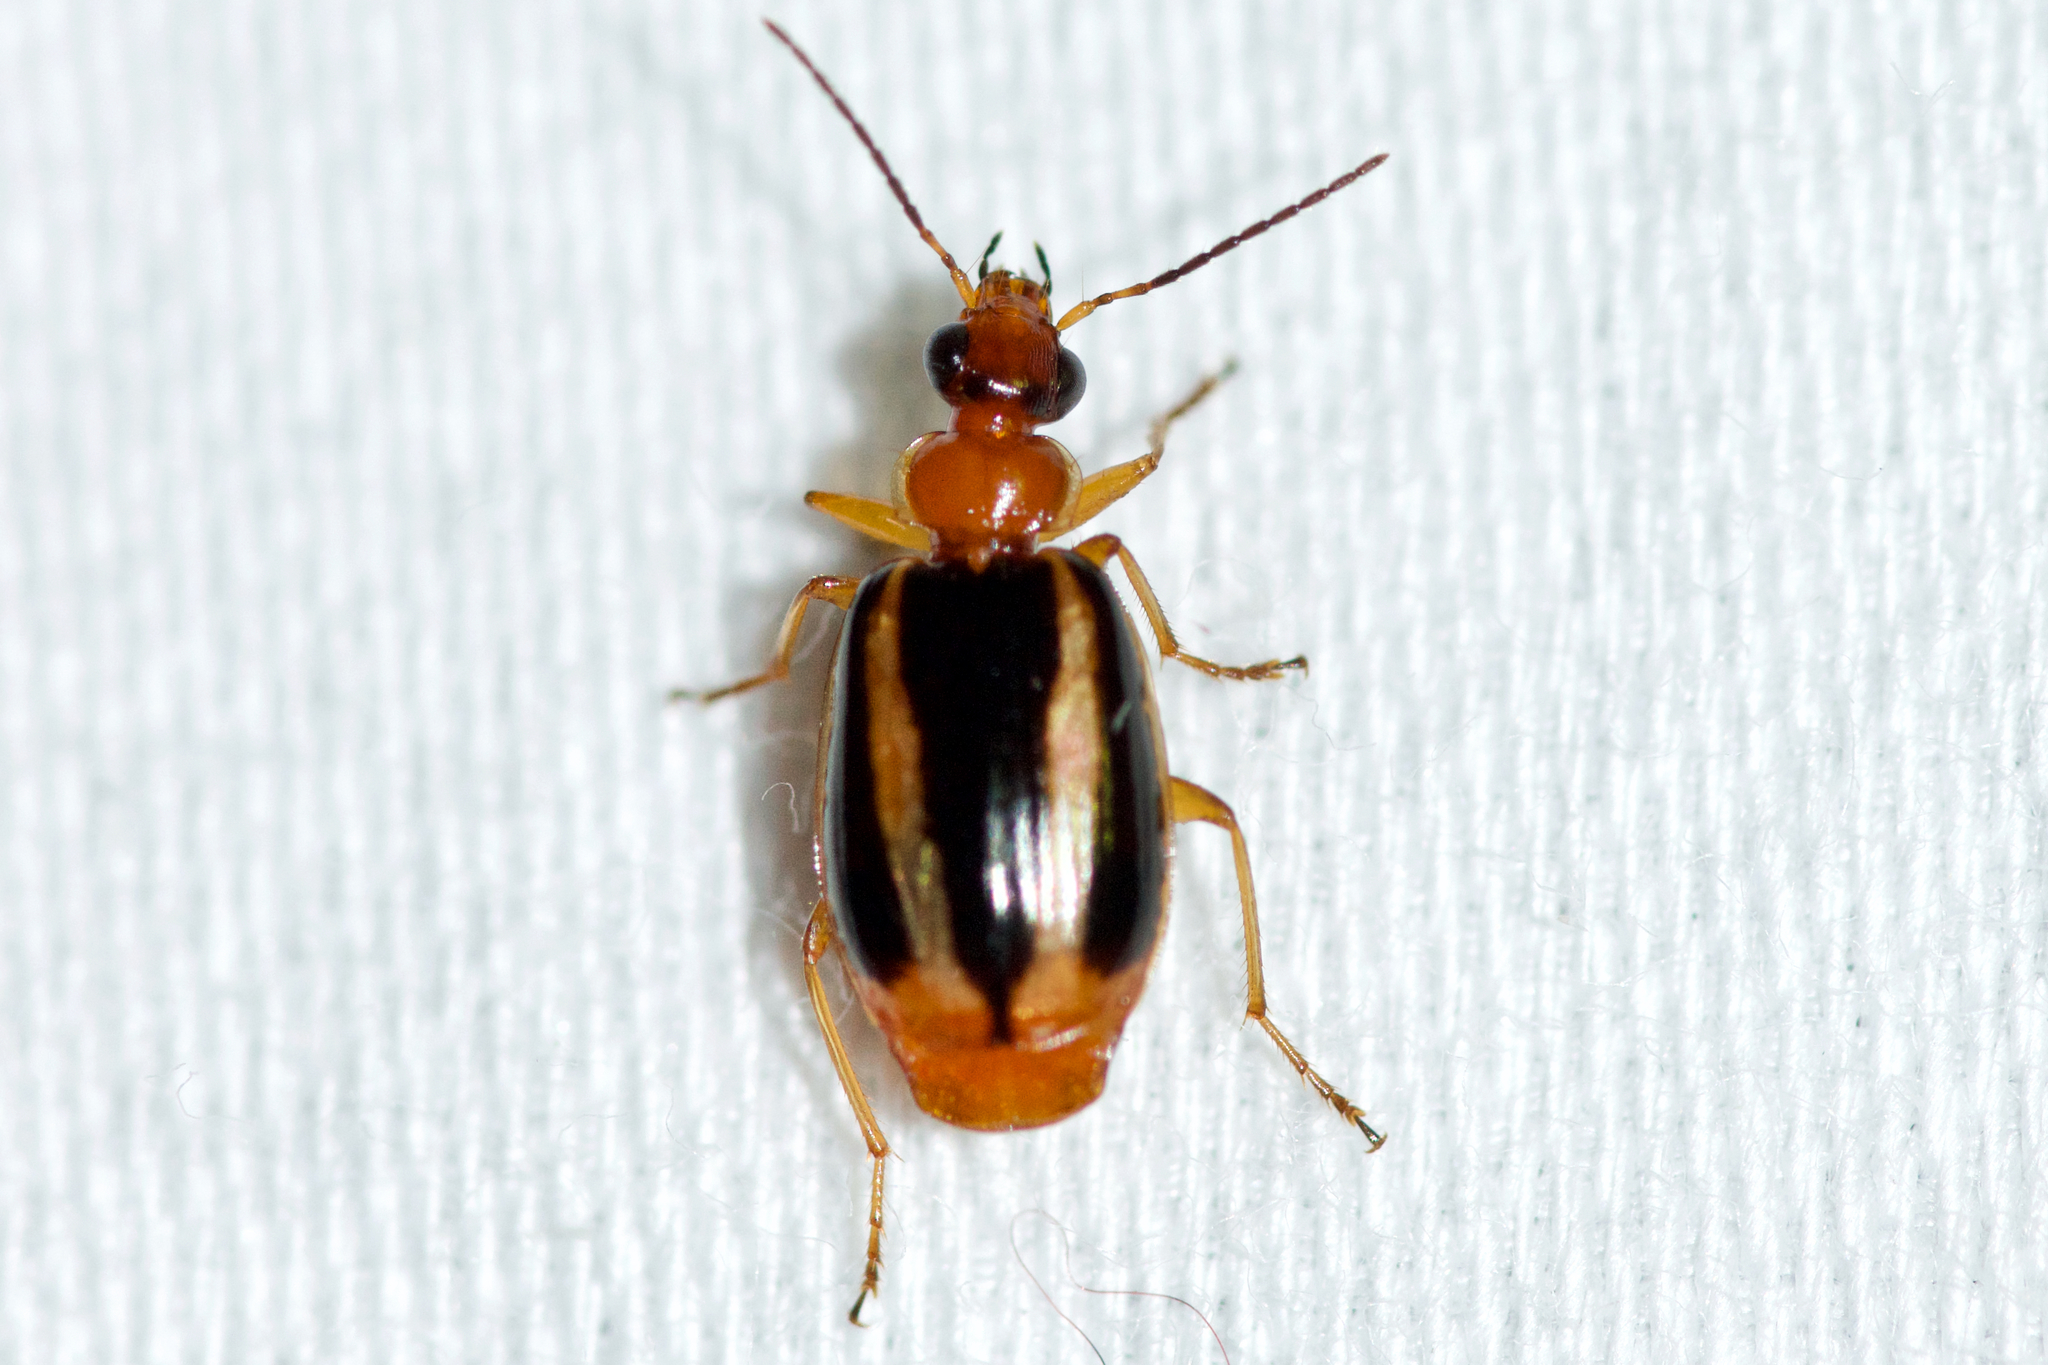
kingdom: Animalia
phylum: Arthropoda
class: Insecta
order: Coleoptera
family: Carabidae
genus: Lebia
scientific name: Lebia solea
